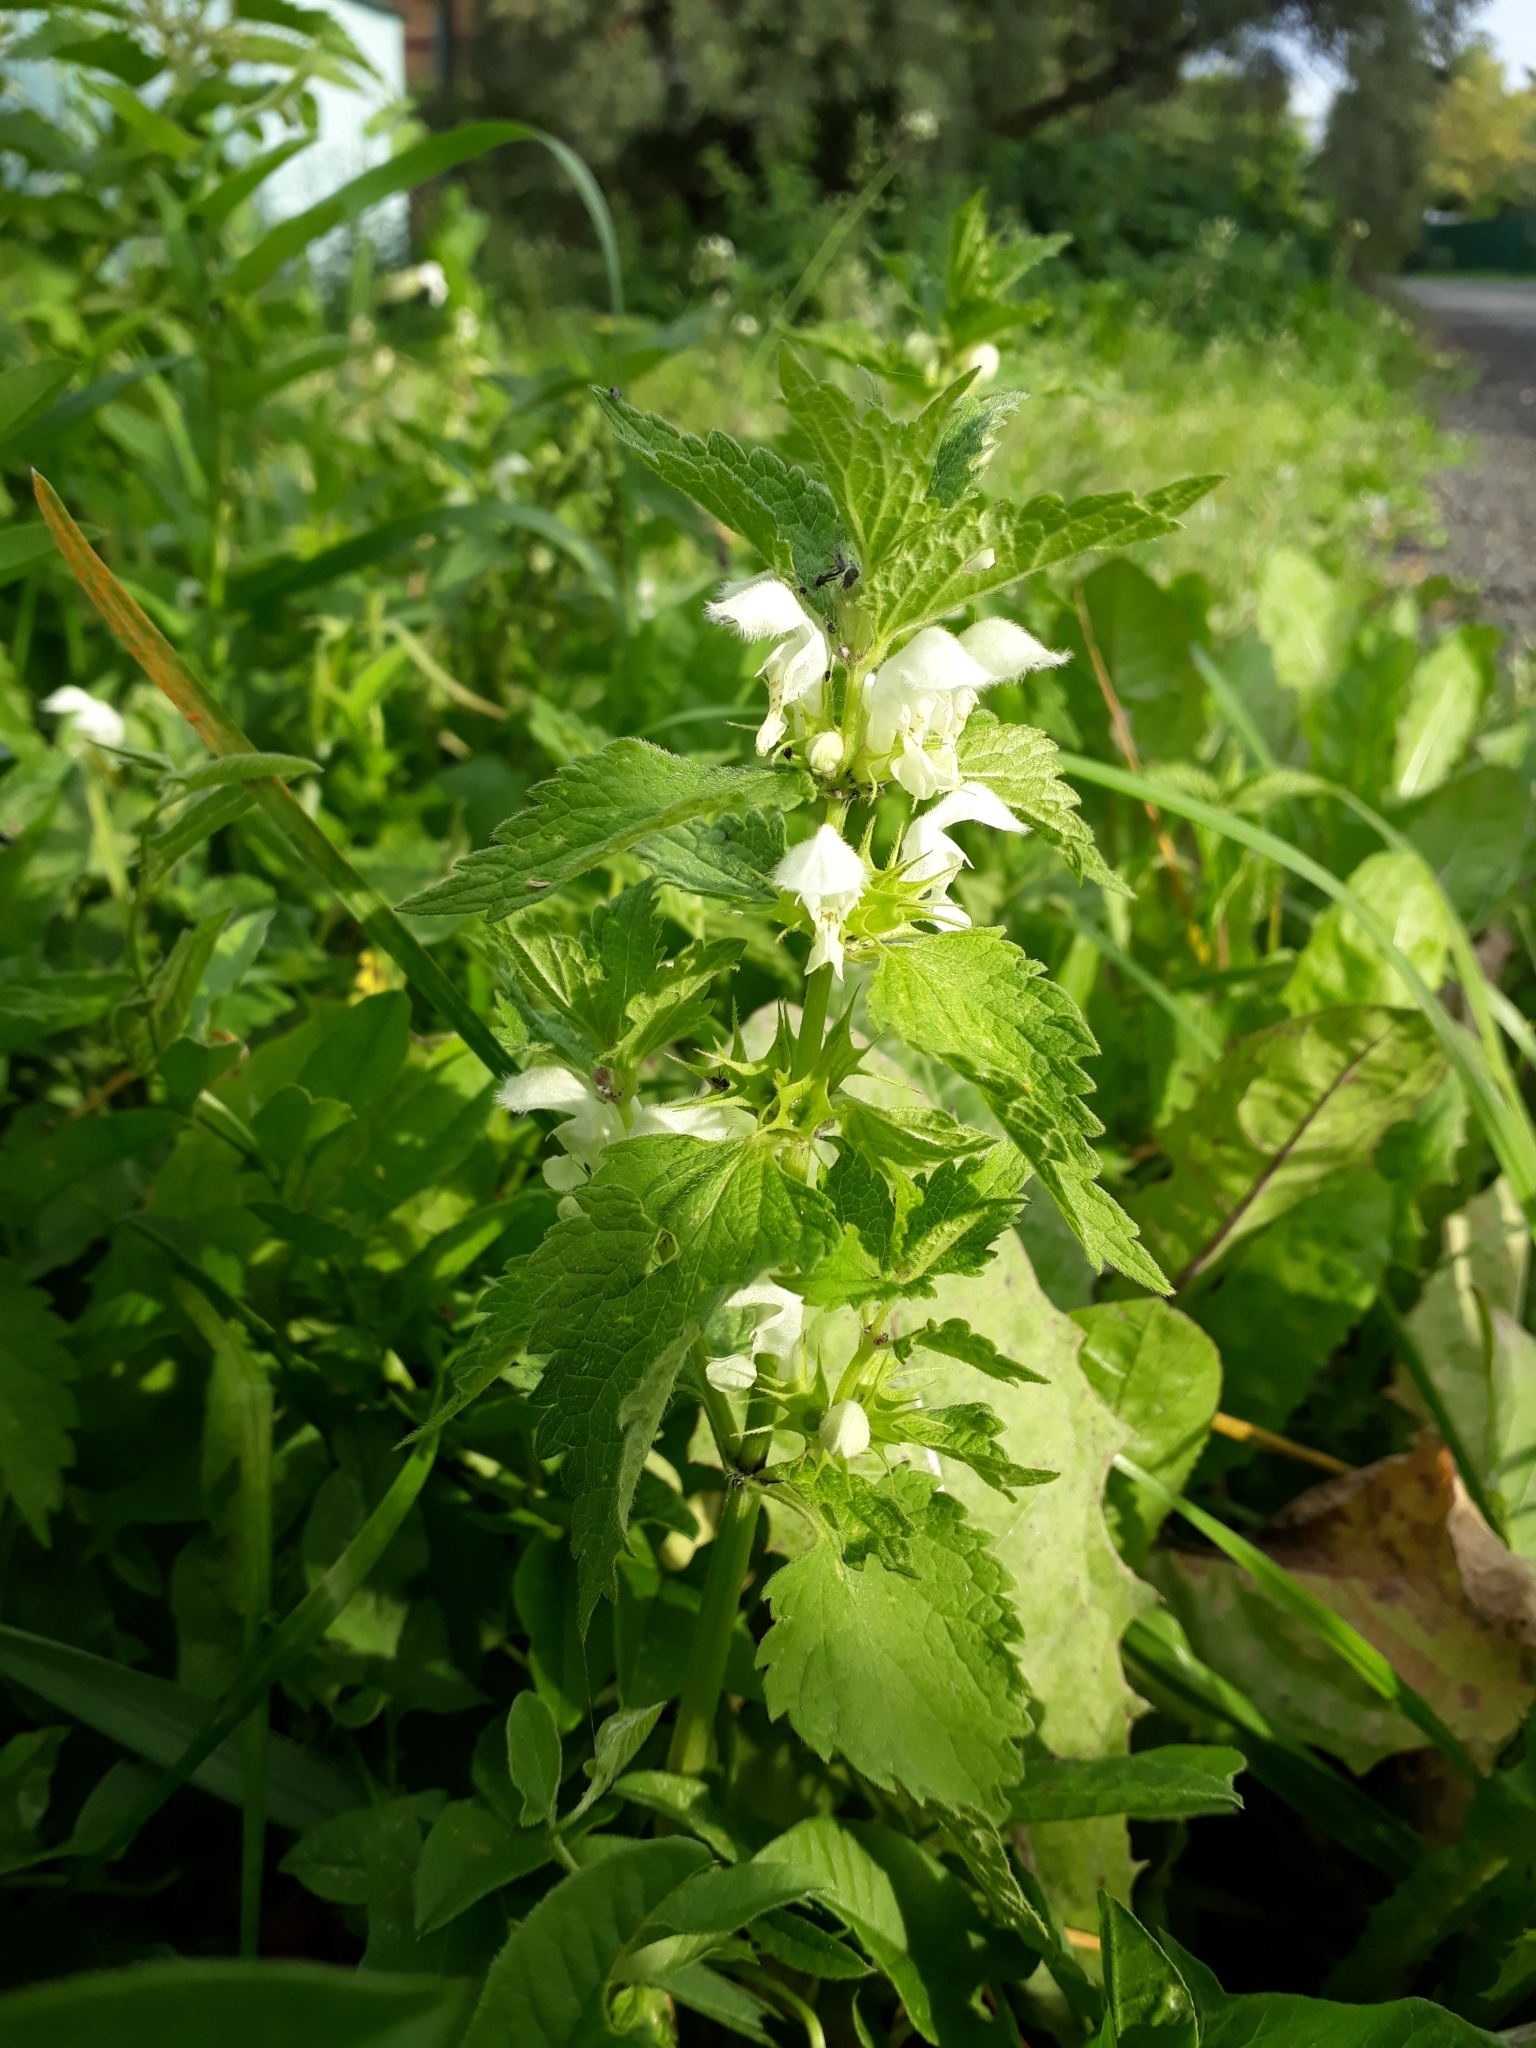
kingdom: Plantae
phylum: Tracheophyta
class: Magnoliopsida
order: Lamiales
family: Lamiaceae
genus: Lamium
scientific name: Lamium album
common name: White dead-nettle
